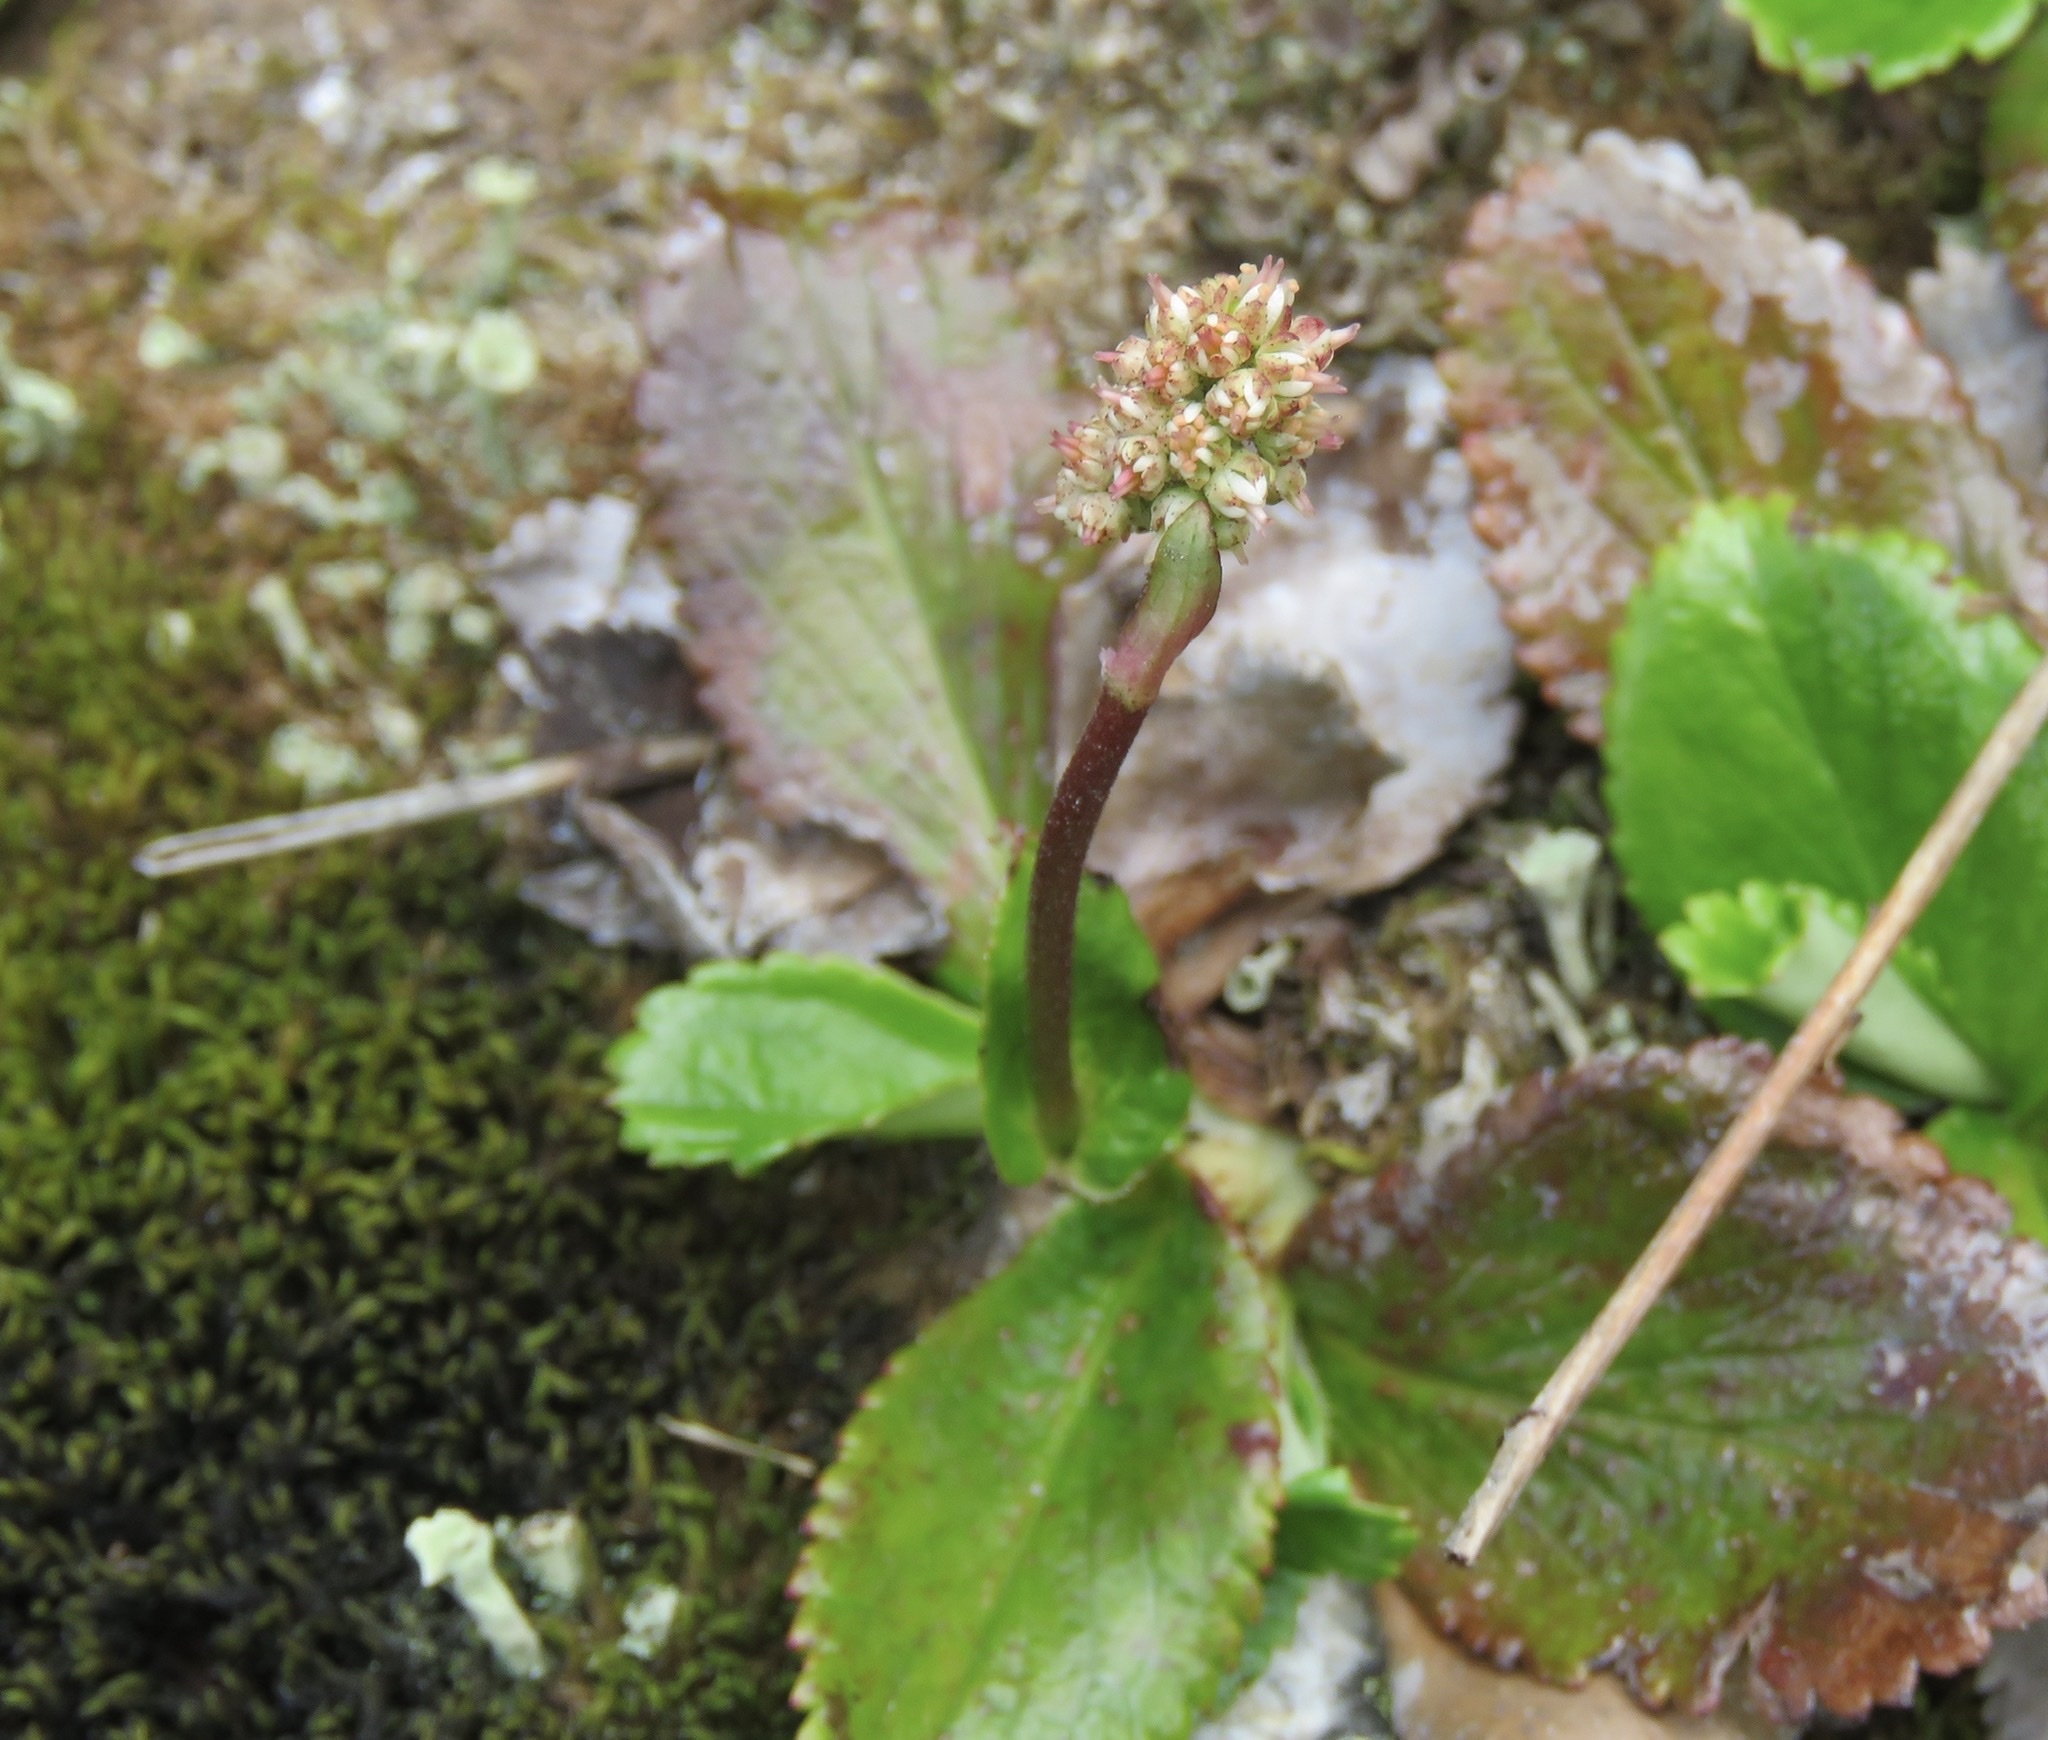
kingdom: Plantae
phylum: Tracheophyta
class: Magnoliopsida
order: Saxifragales
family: Saxifragaceae
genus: Leptarrhena
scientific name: Leptarrhena pyrolifolia
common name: Leatherleaf-saxifrage
